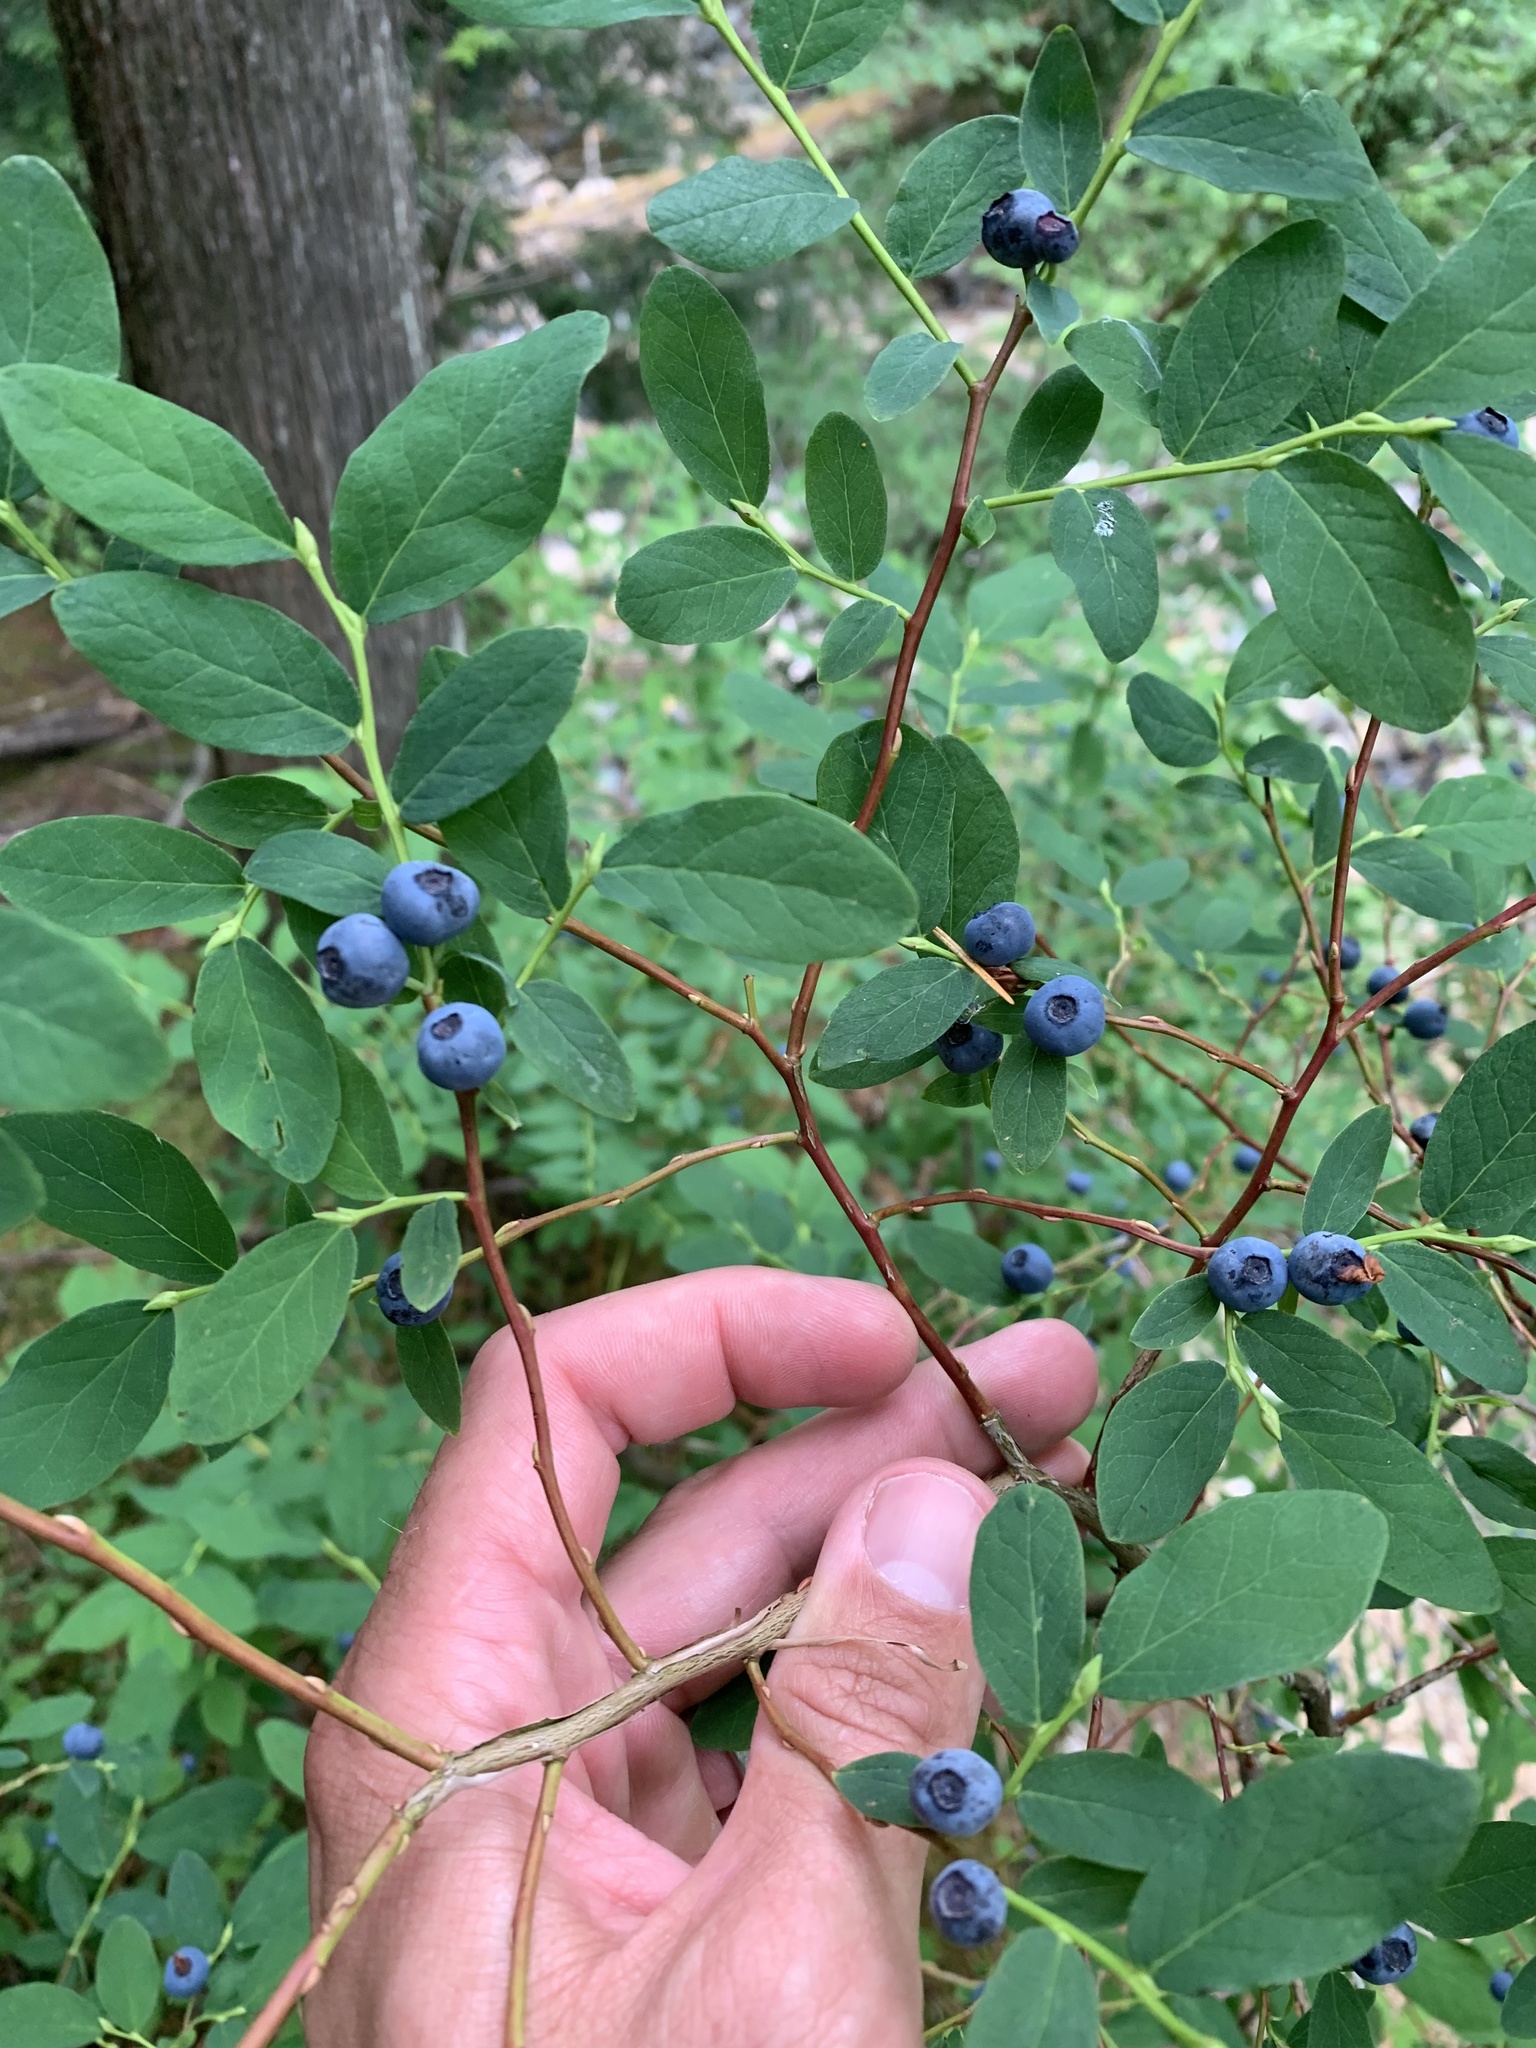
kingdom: Plantae
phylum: Tracheophyta
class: Magnoliopsida
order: Ericales
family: Ericaceae
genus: Vaccinium
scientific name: Vaccinium ovalifolium
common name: Early blueberry
